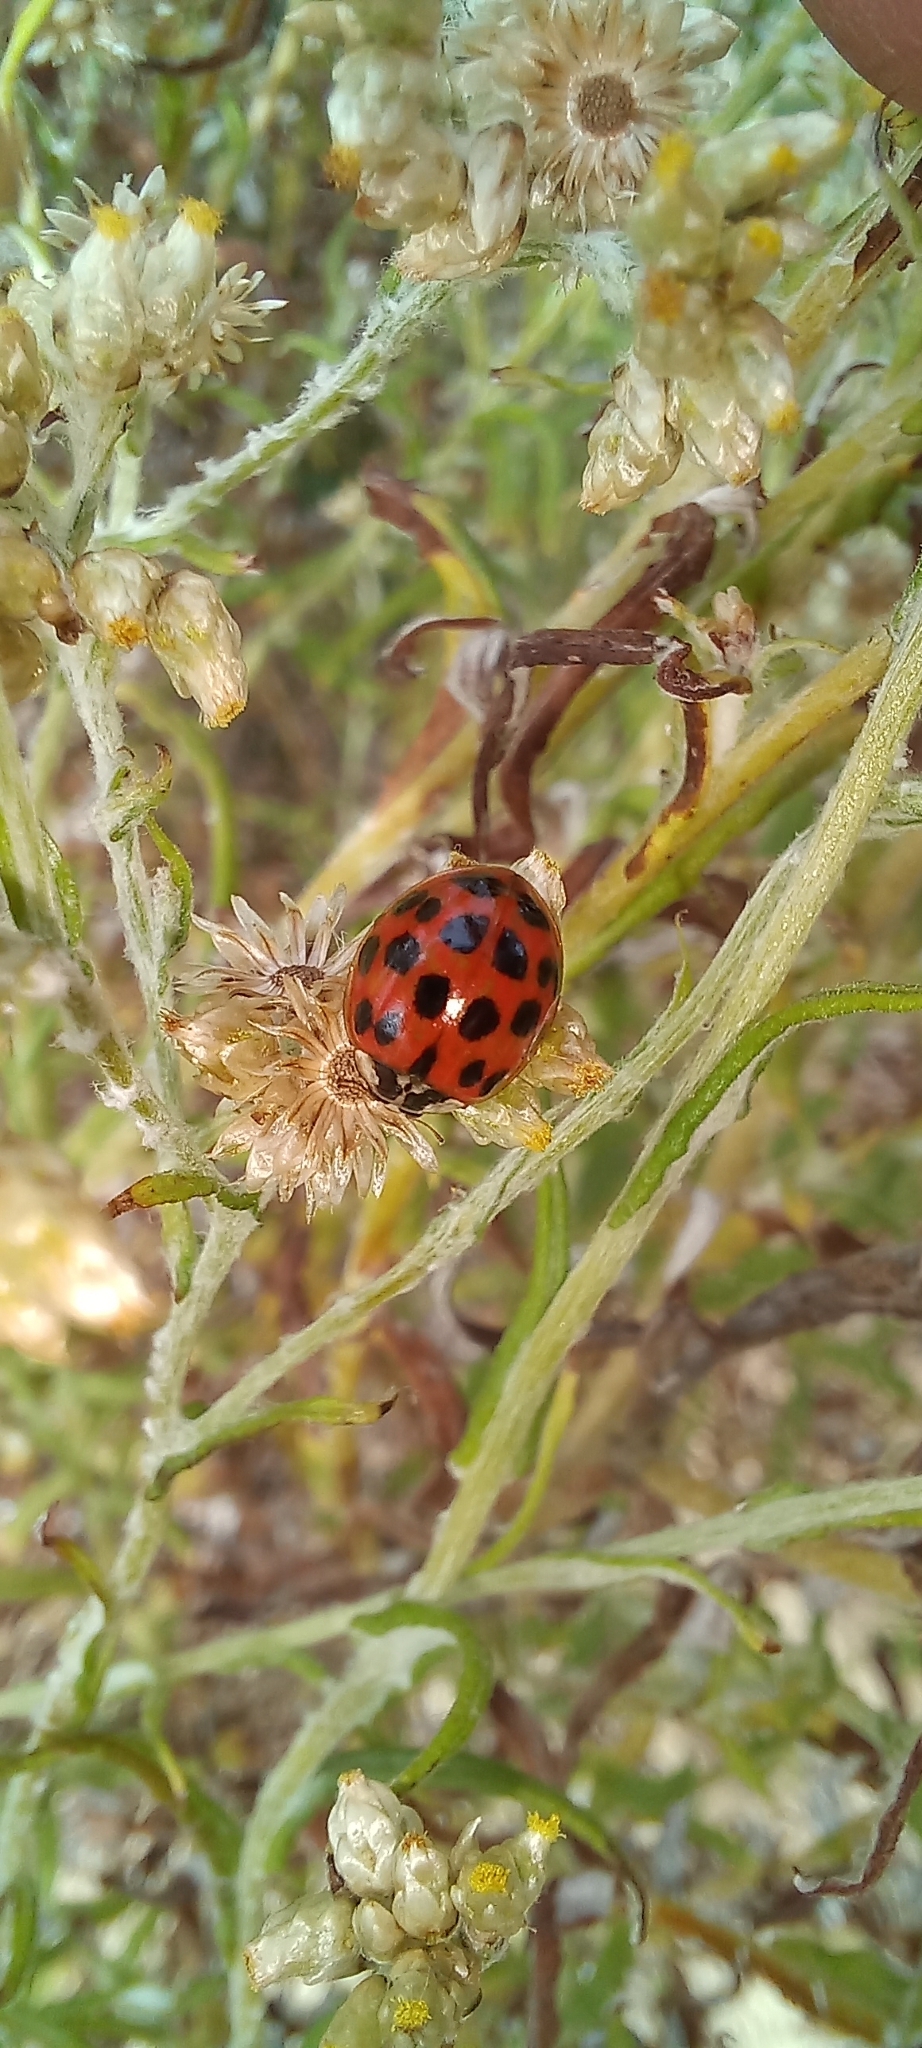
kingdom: Animalia
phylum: Arthropoda
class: Insecta
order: Coleoptera
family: Coccinellidae
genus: Harmonia
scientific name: Harmonia axyridis
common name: Harlequin ladybird
